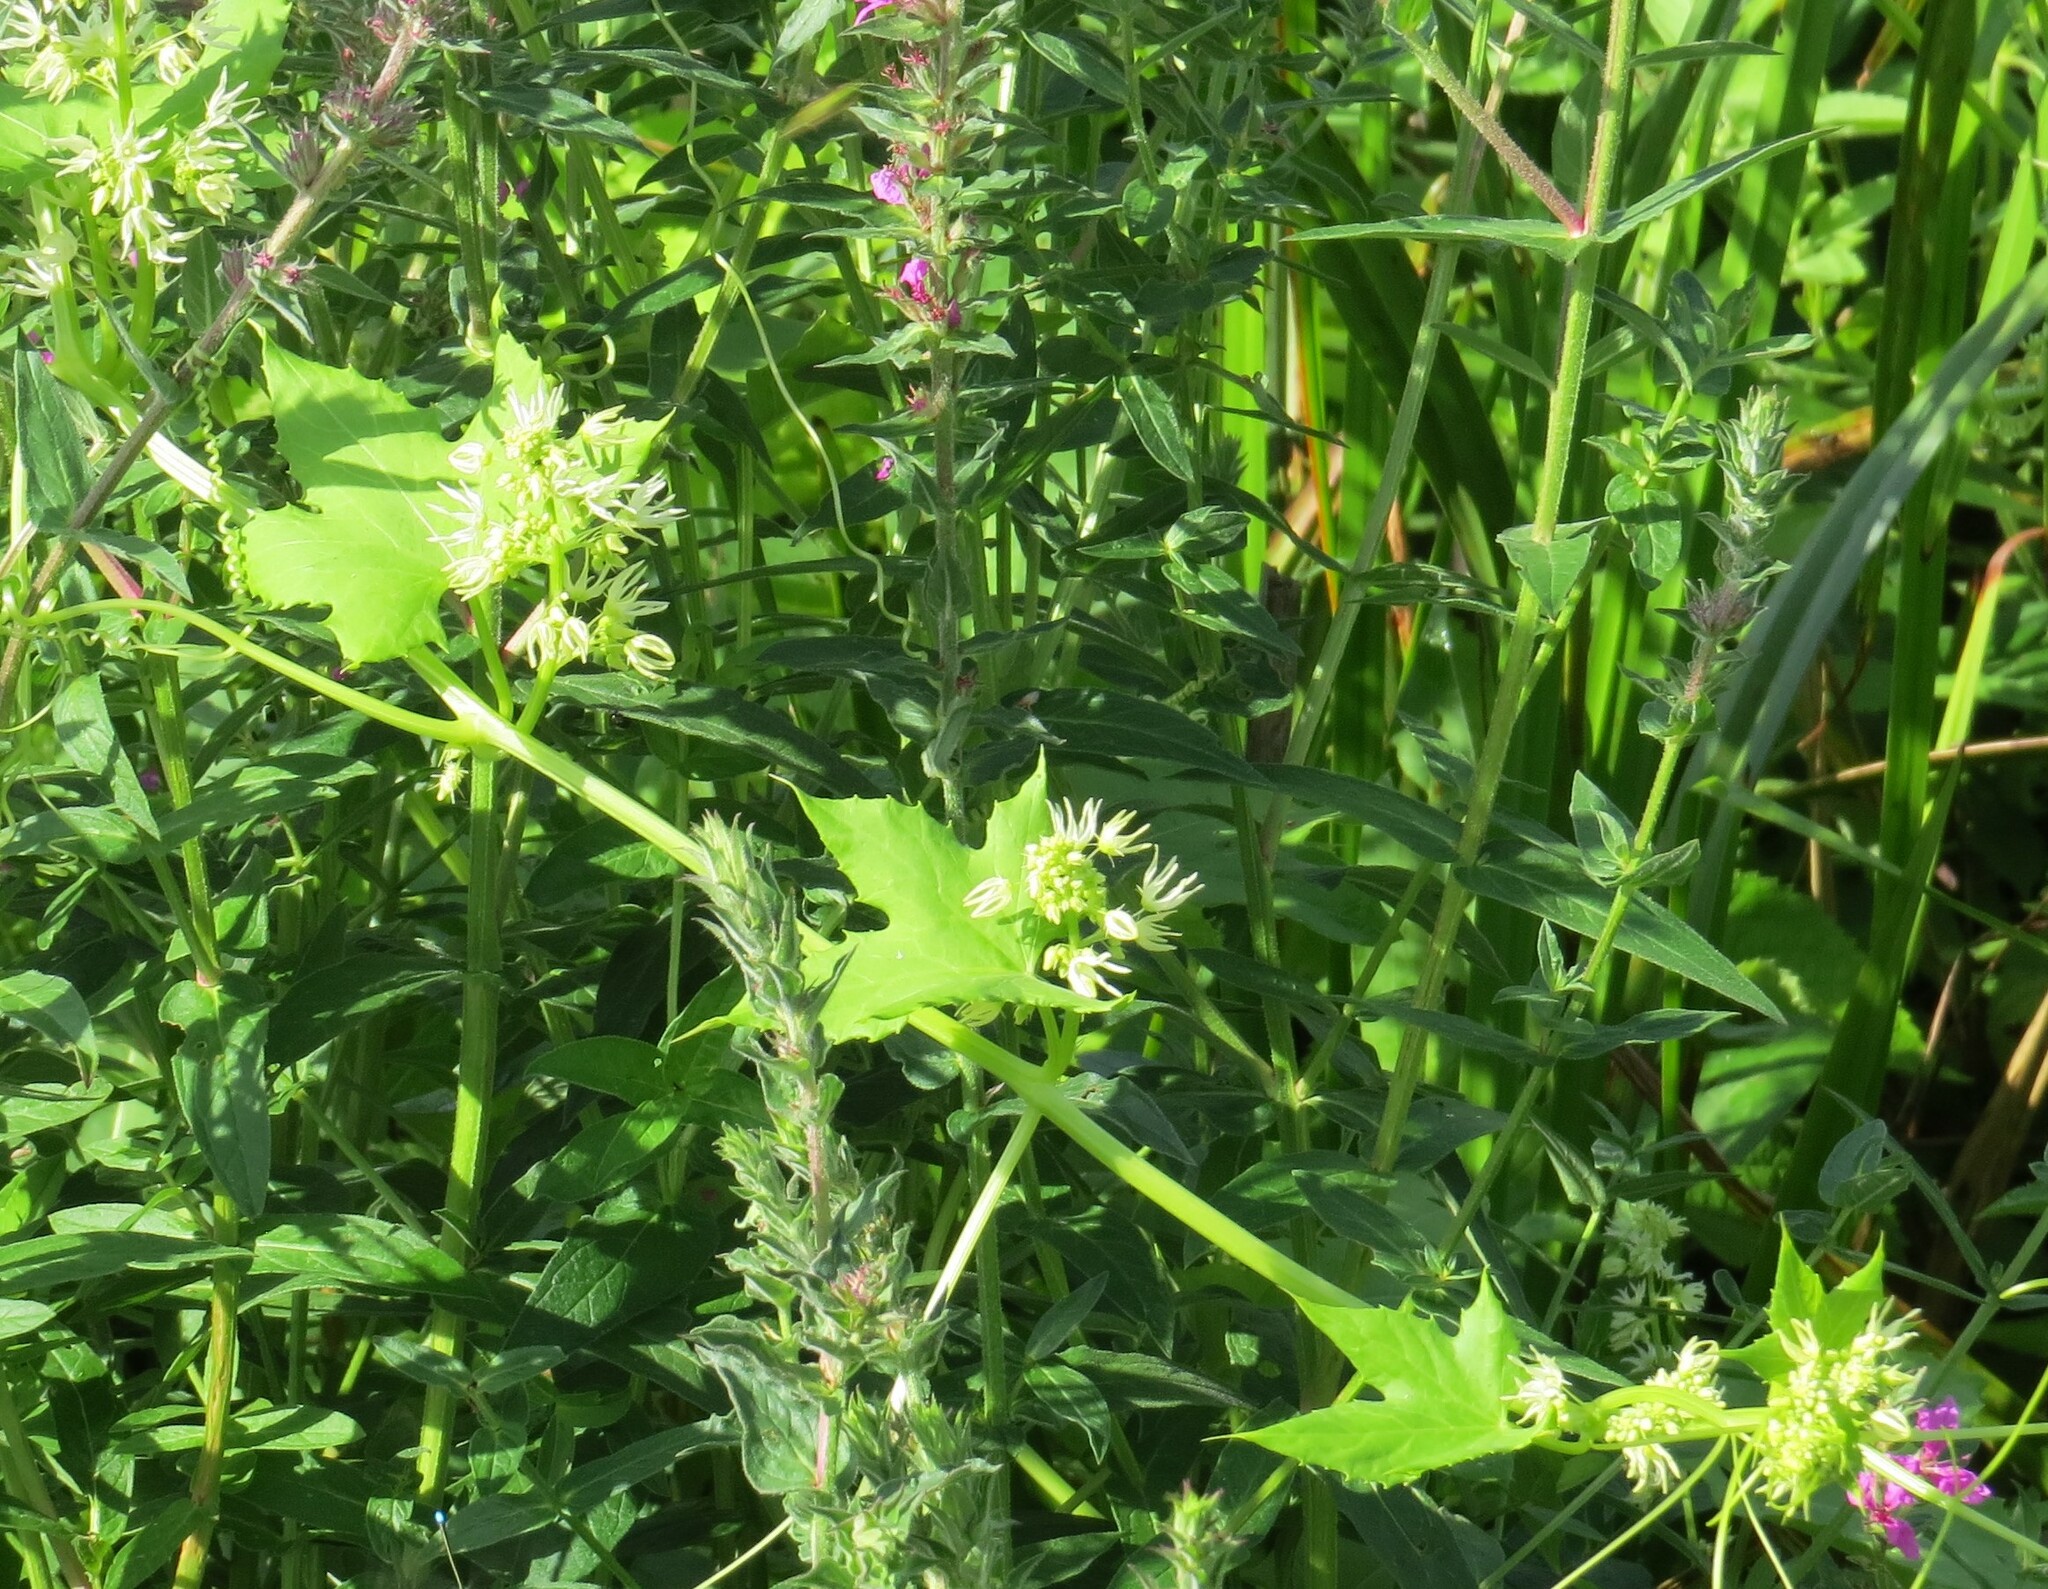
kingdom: Plantae
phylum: Tracheophyta
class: Magnoliopsida
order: Cucurbitales
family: Cucurbitaceae
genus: Echinocystis
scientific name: Echinocystis lobata
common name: Wild cucumber
